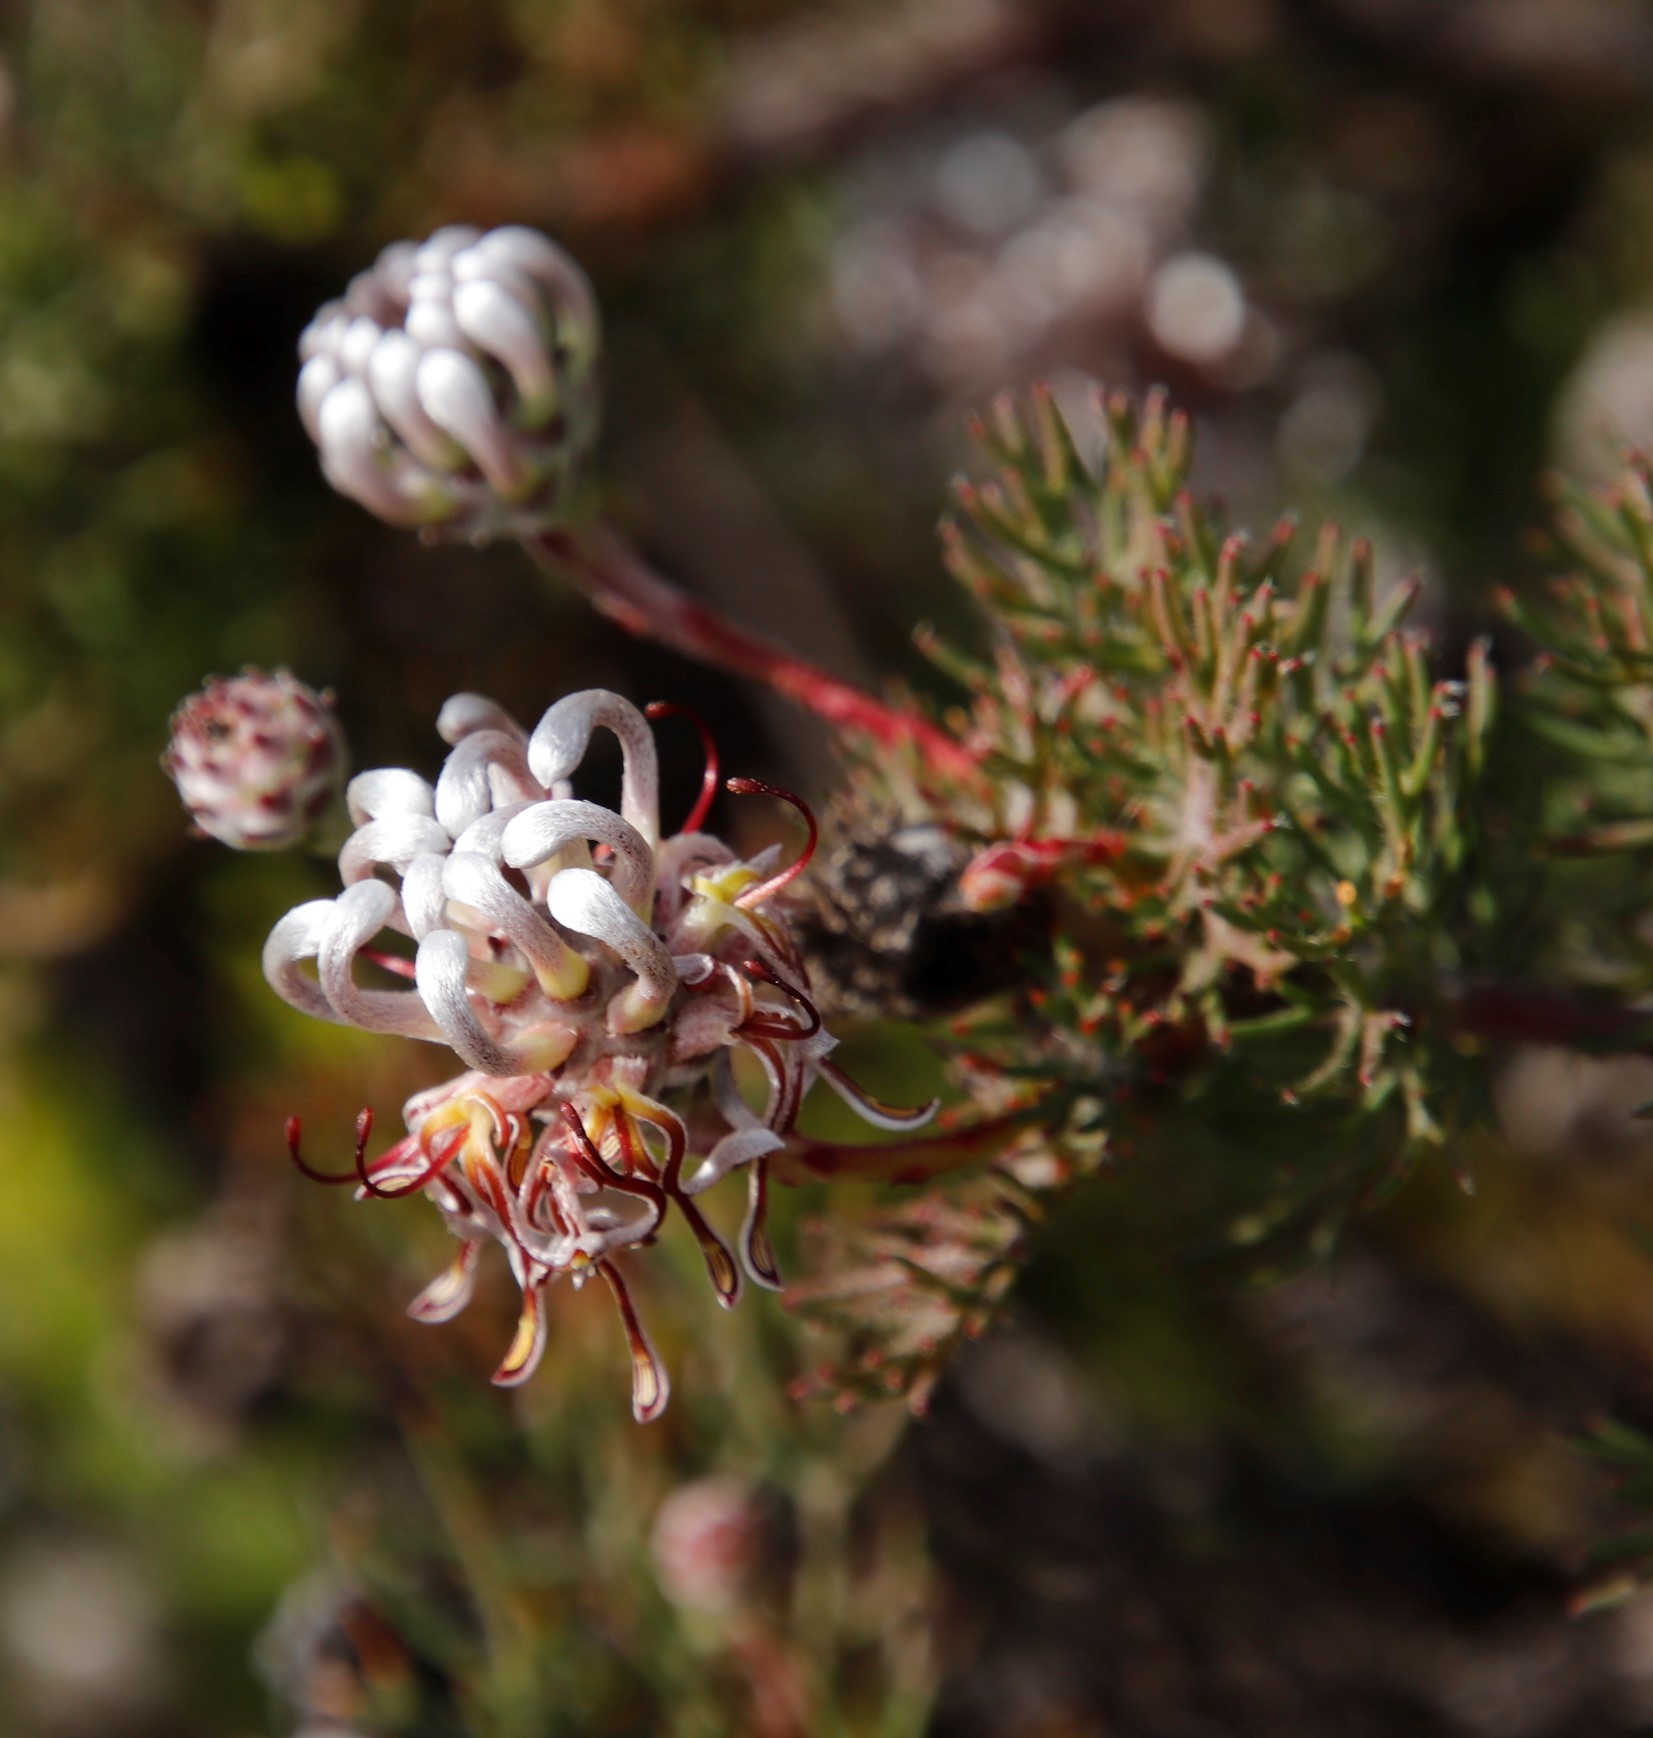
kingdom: Plantae
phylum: Tracheophyta
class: Magnoliopsida
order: Proteales
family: Proteaceae
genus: Serruria
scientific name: Serruria gremialis
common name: Riviersonderend spiderhead
